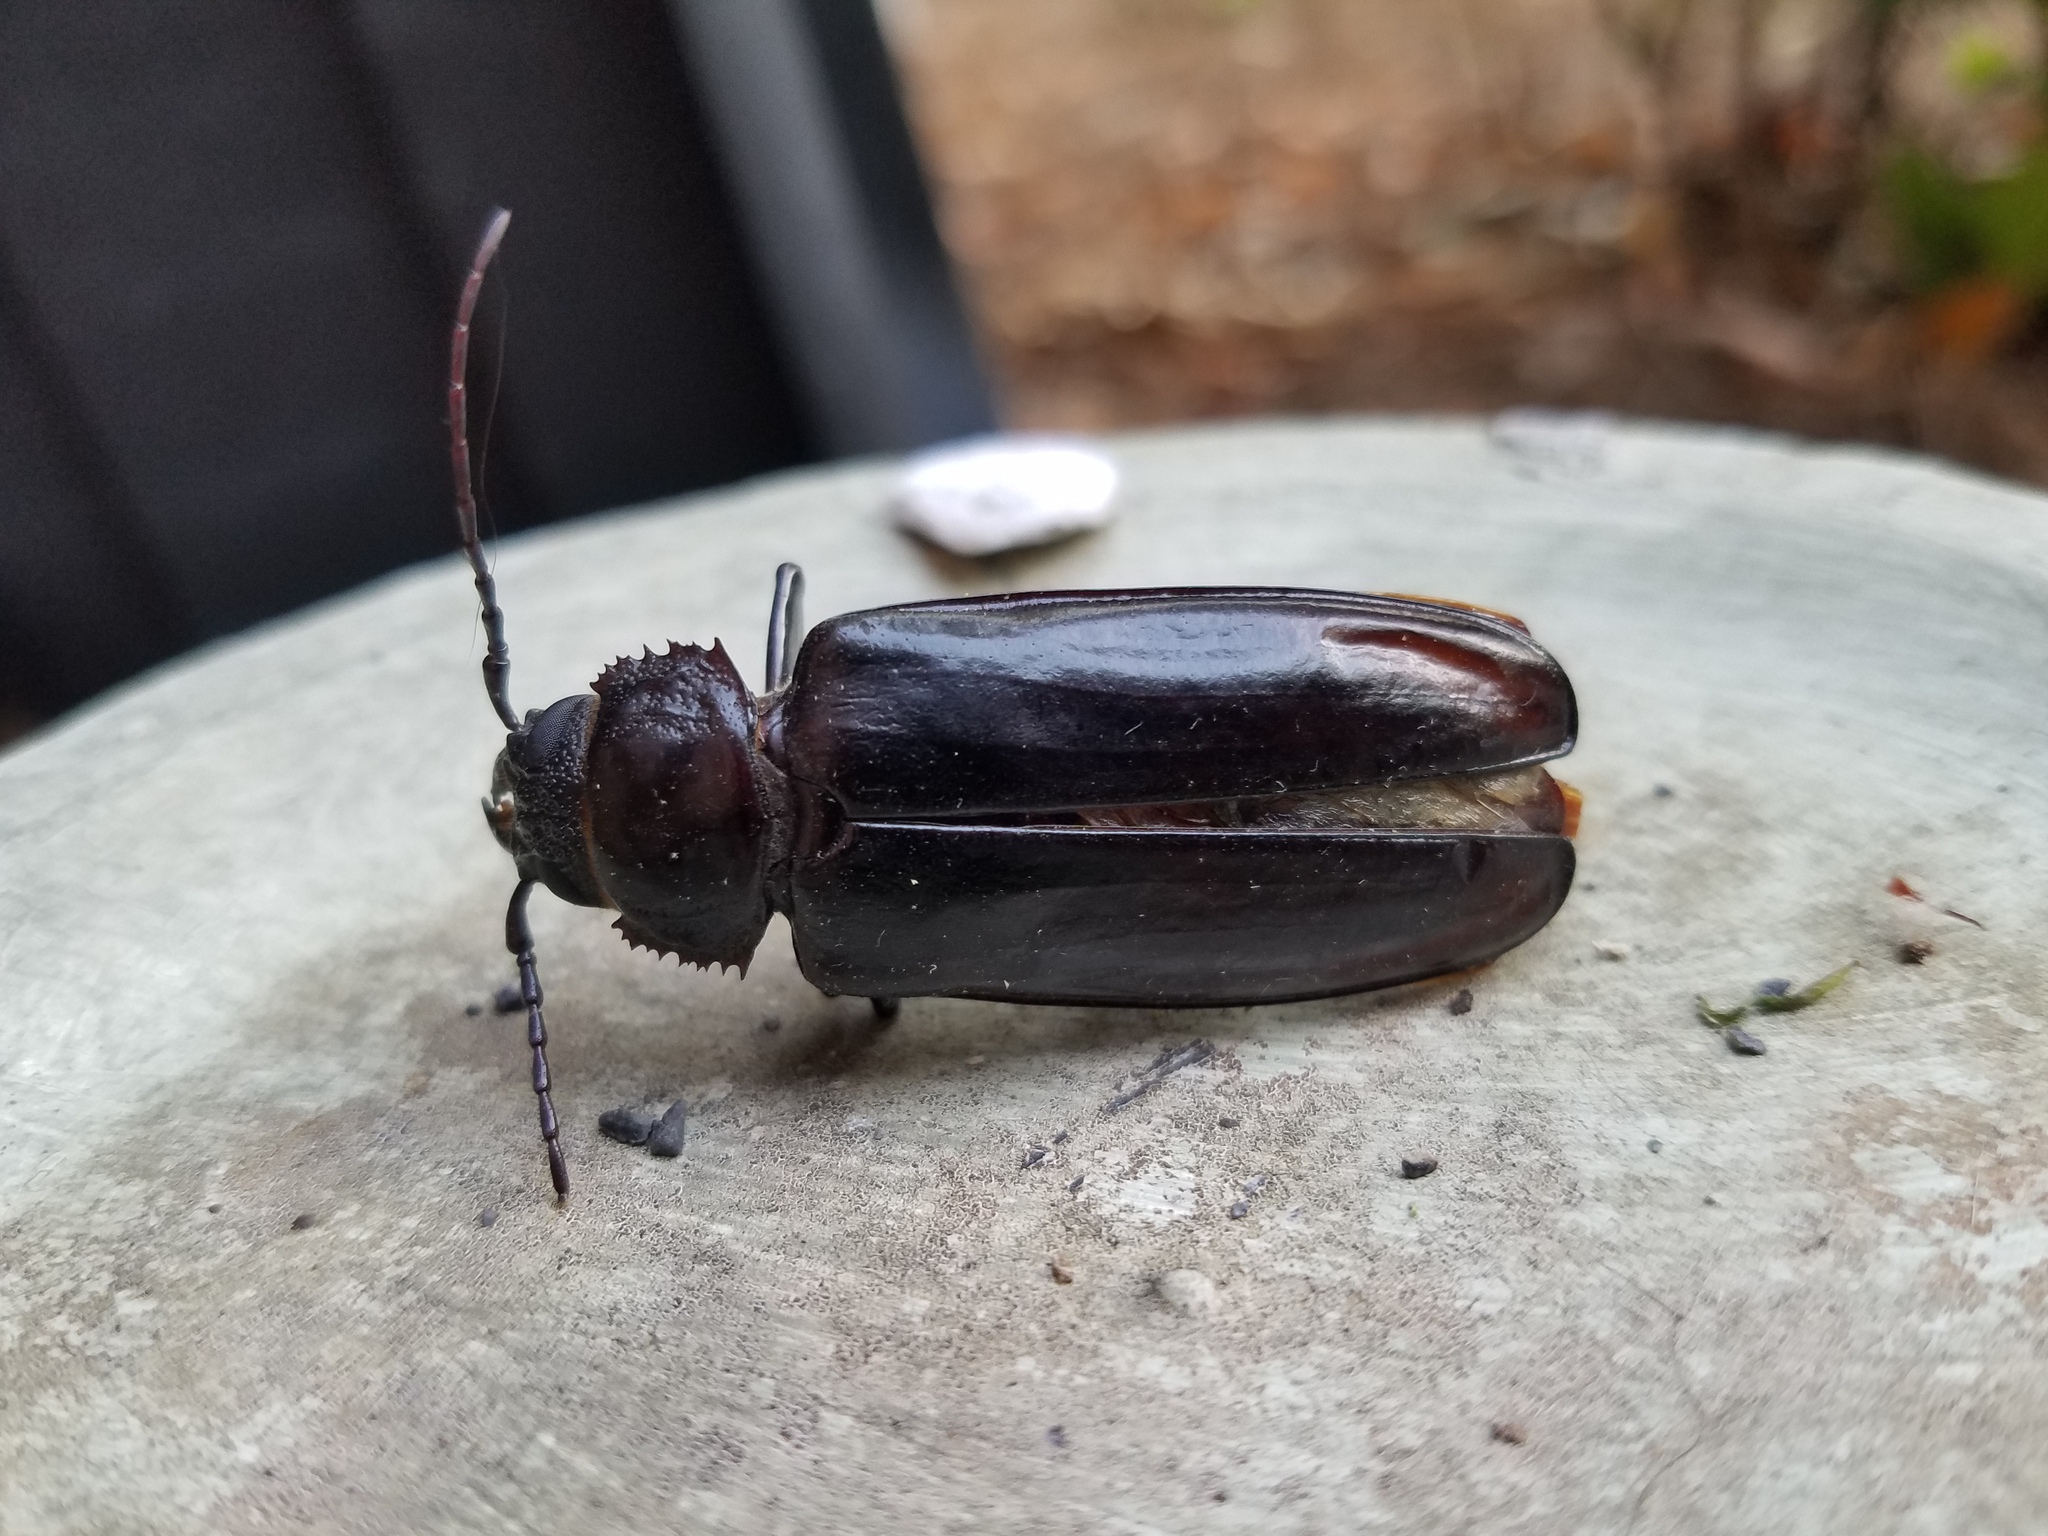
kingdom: Animalia
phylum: Arthropoda
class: Insecta
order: Coleoptera
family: Cerambycidae
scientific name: Cerambycidae
